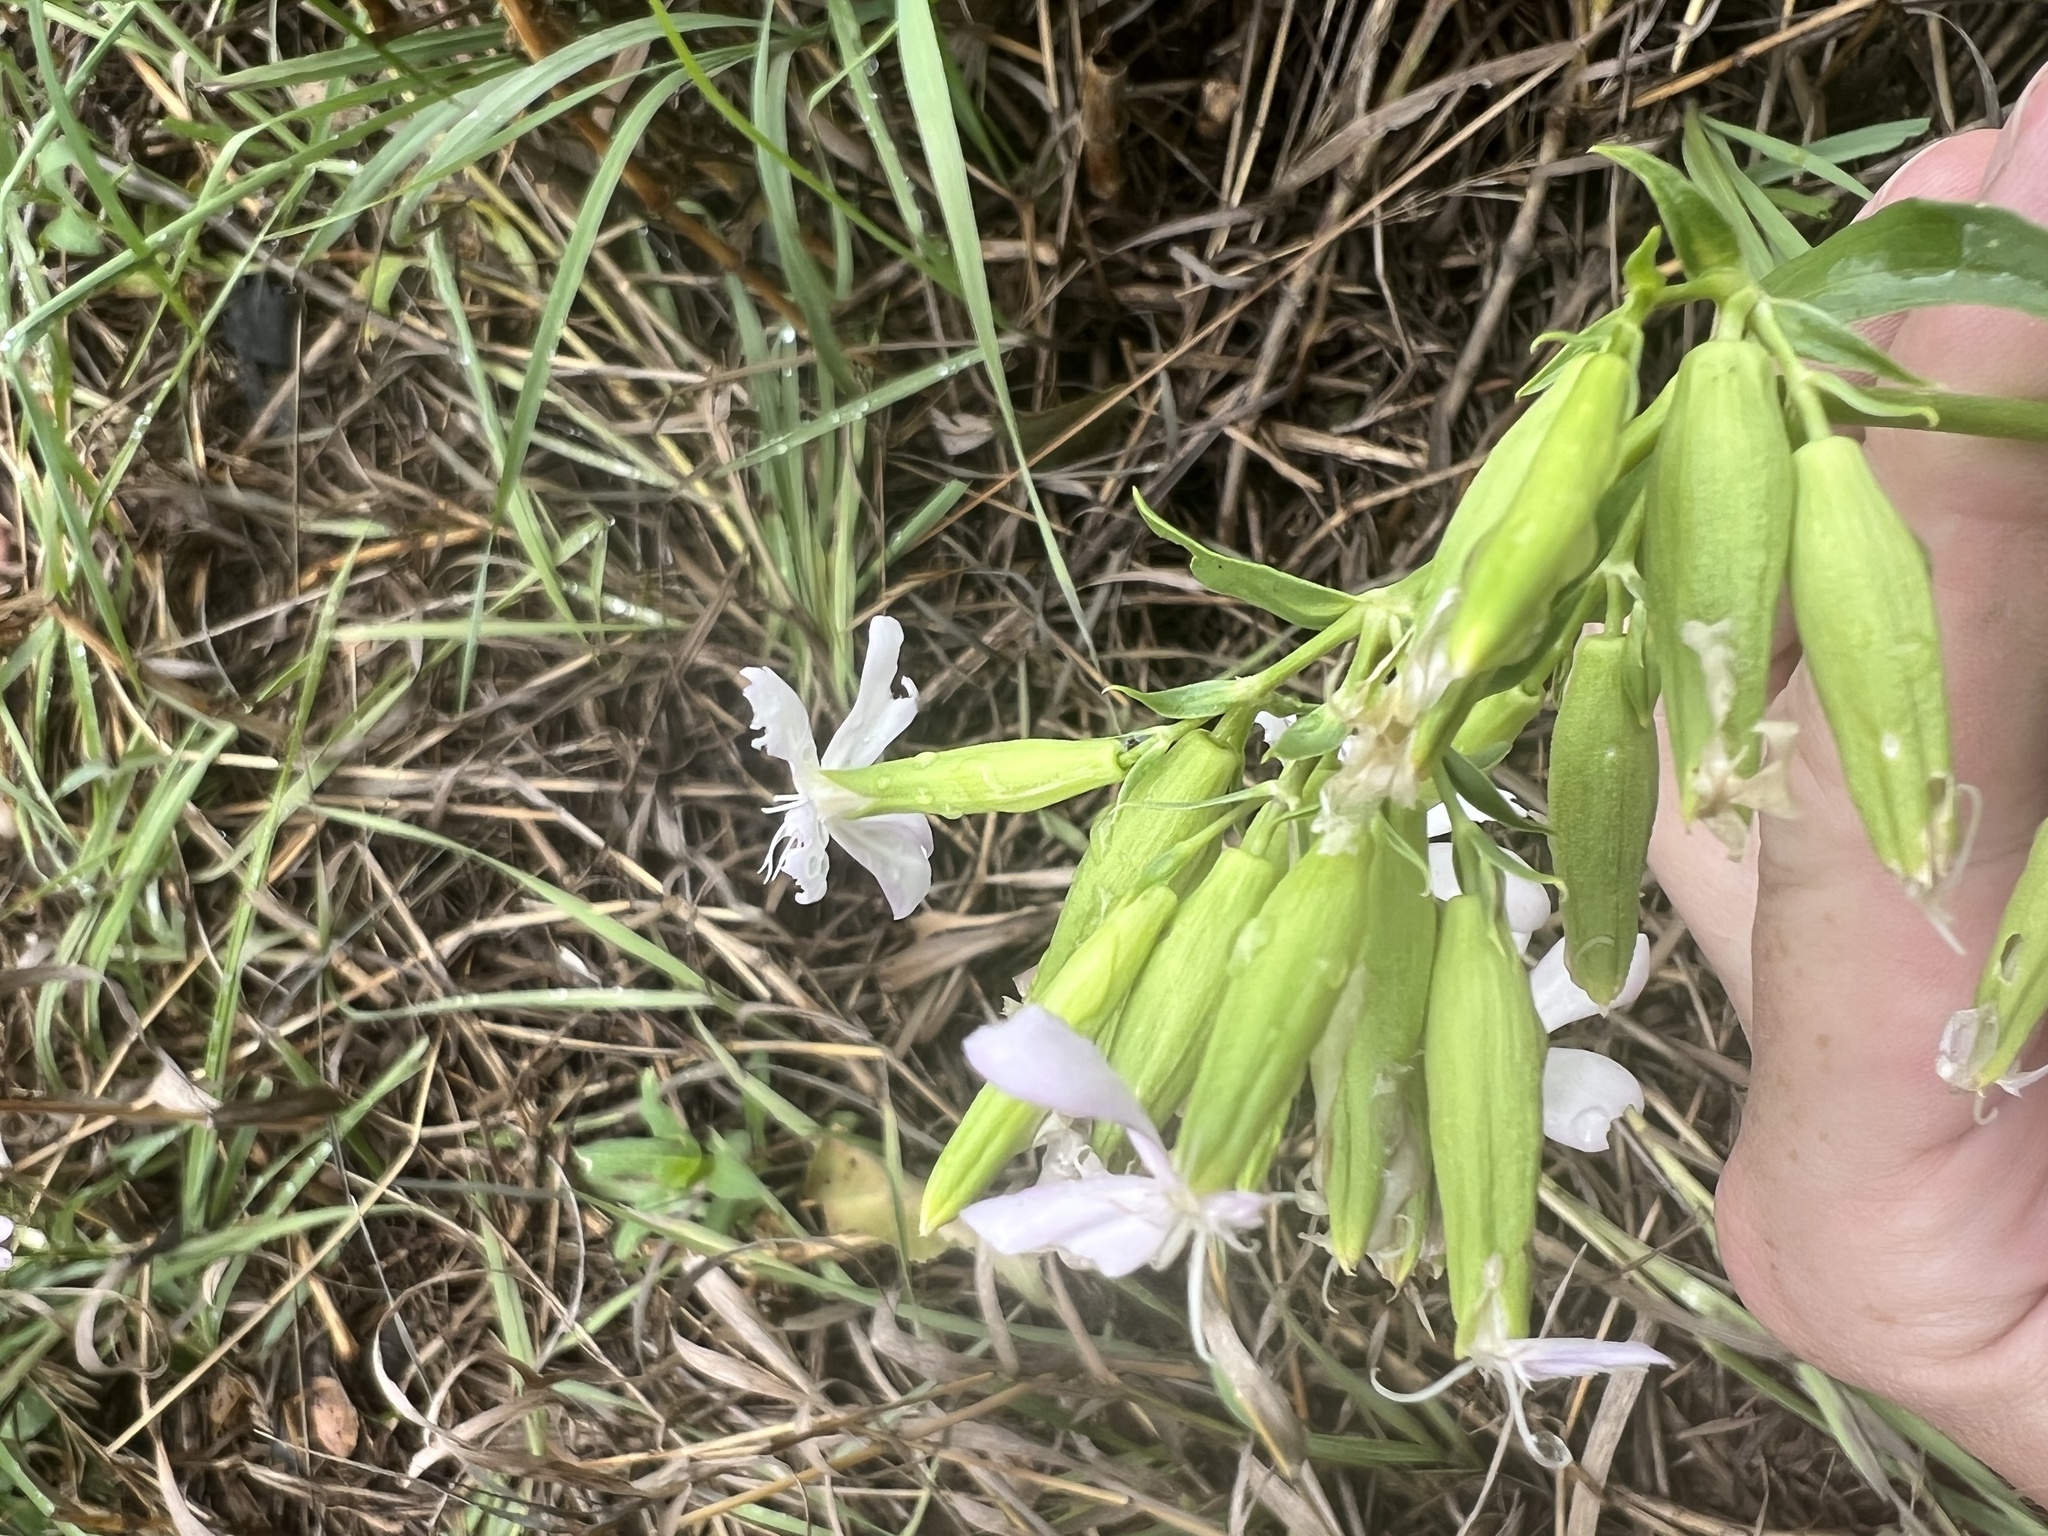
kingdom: Plantae
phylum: Tracheophyta
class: Magnoliopsida
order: Caryophyllales
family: Caryophyllaceae
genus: Saponaria
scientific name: Saponaria officinalis
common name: Soapwort
